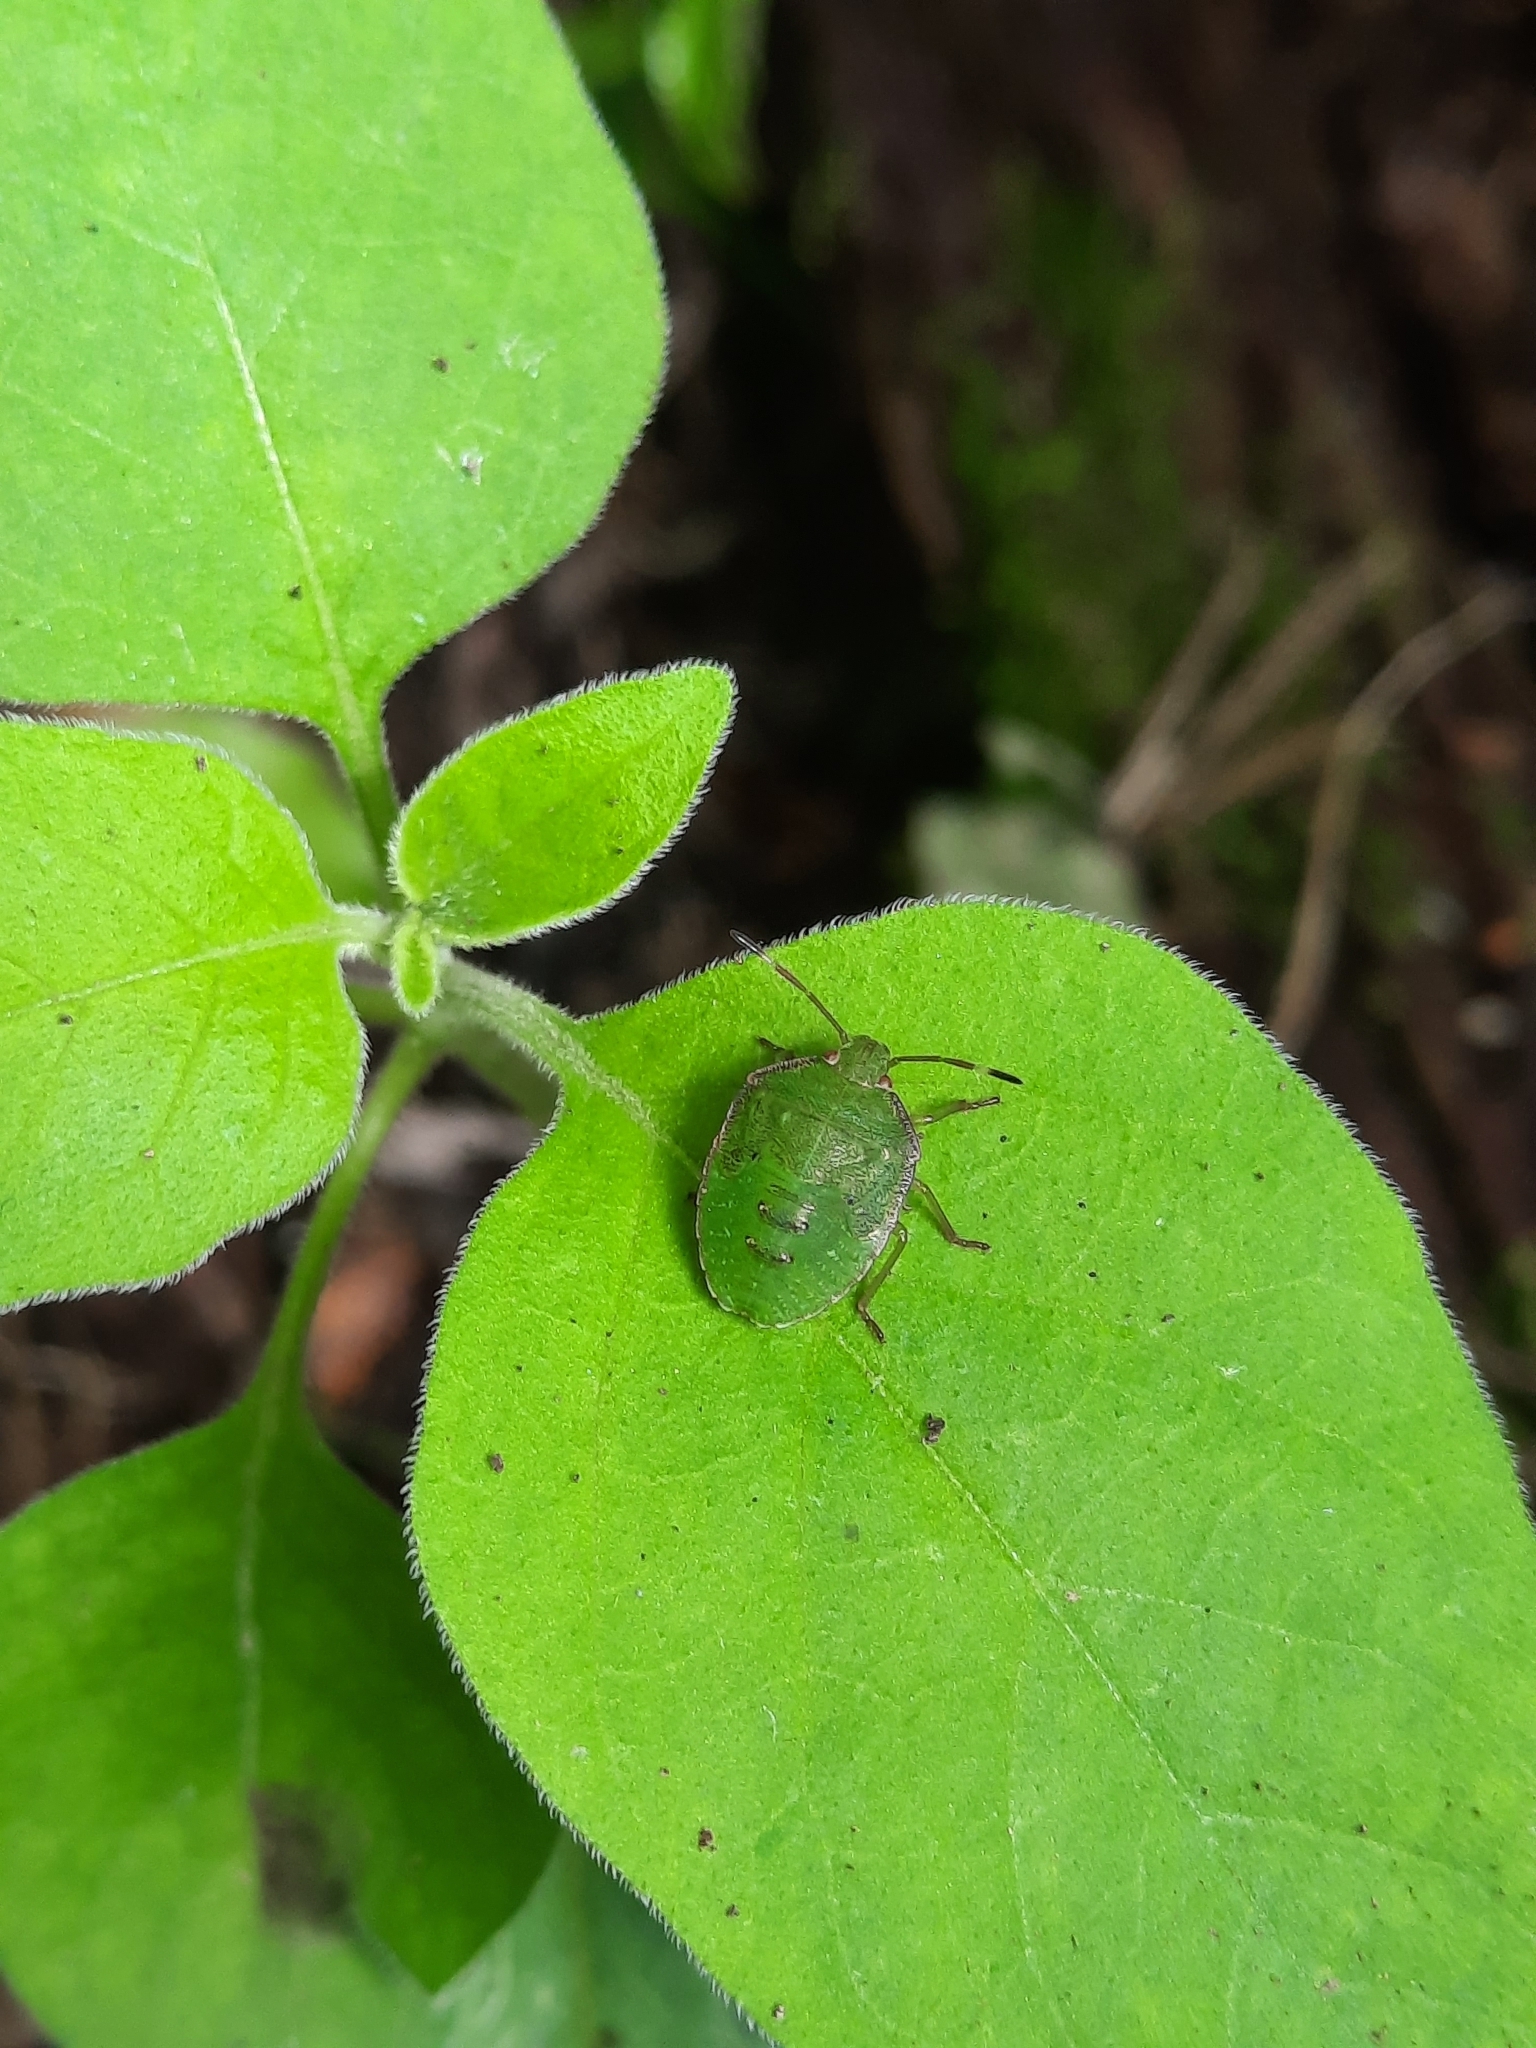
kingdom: Animalia
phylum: Arthropoda
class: Insecta
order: Hemiptera
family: Pentatomidae
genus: Cuspicona
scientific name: Cuspicona simplex
